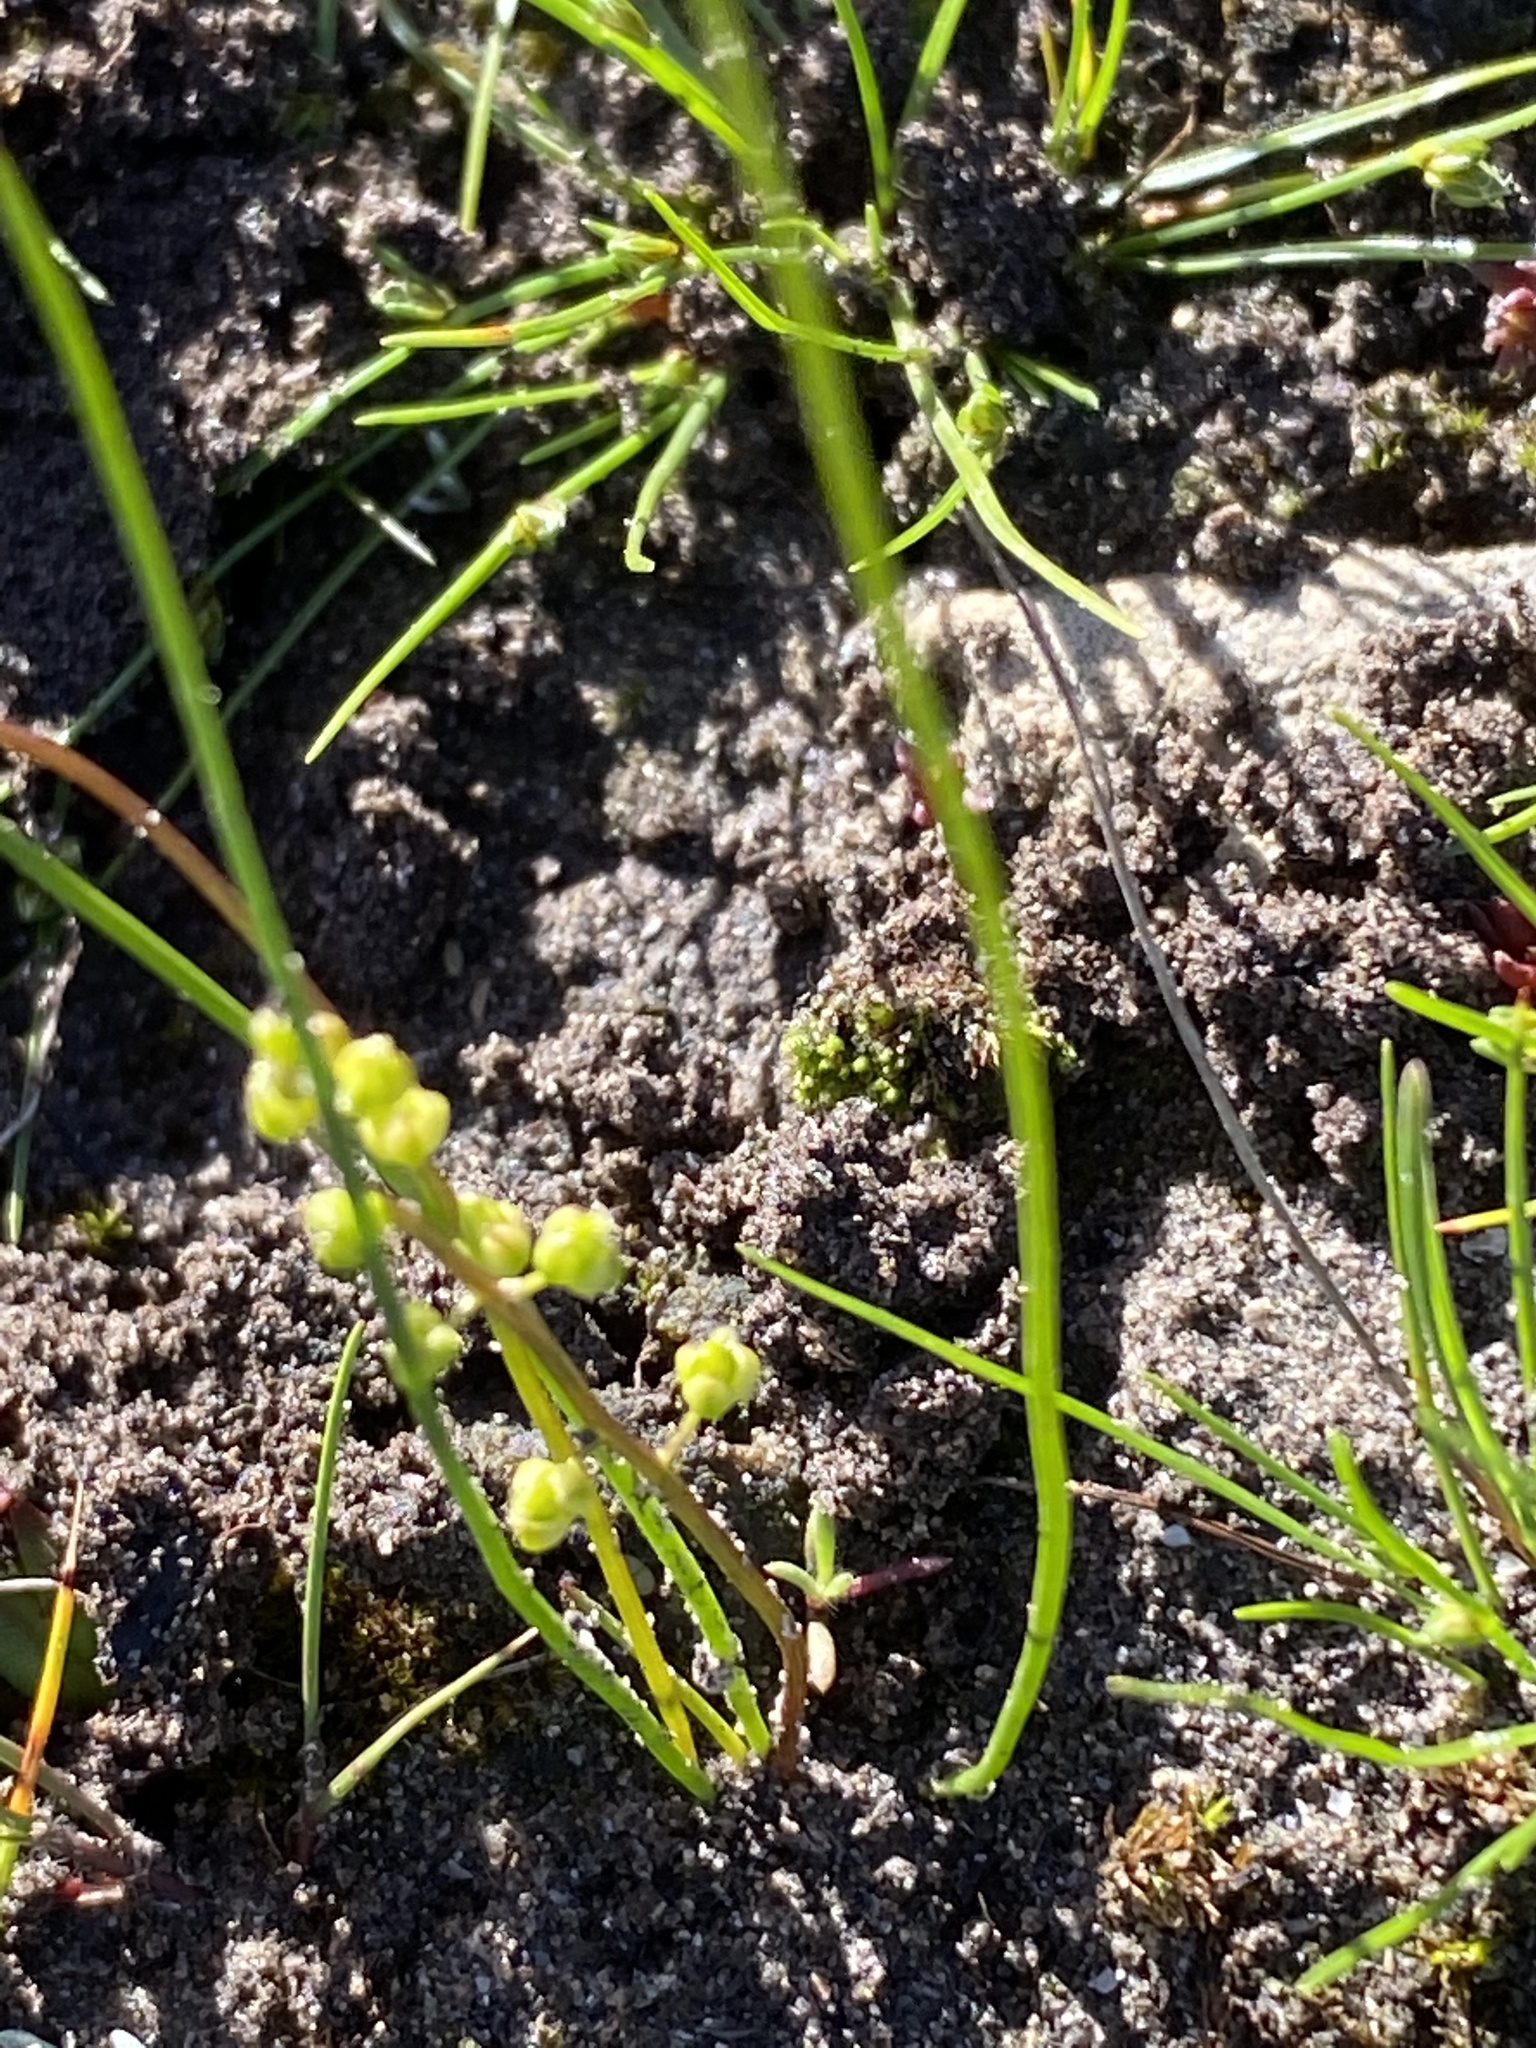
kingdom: Plantae
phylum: Tracheophyta
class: Liliopsida
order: Alismatales
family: Juncaginaceae
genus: Triglochin
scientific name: Triglochin bulbosa
